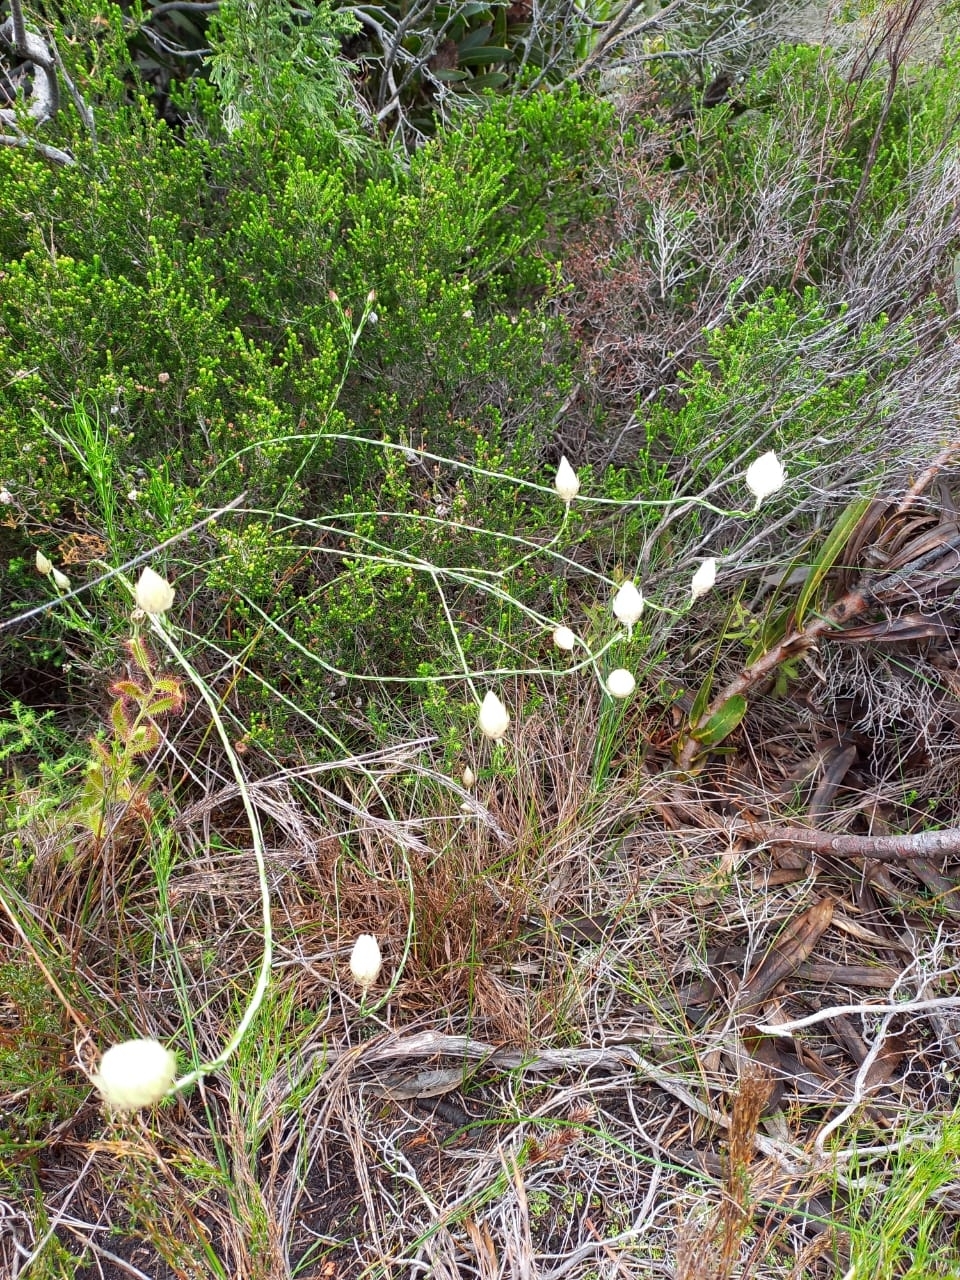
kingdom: Plantae
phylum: Tracheophyta
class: Magnoliopsida
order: Asterales
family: Asteraceae
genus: Edmondia
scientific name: Edmondia sesamoides
